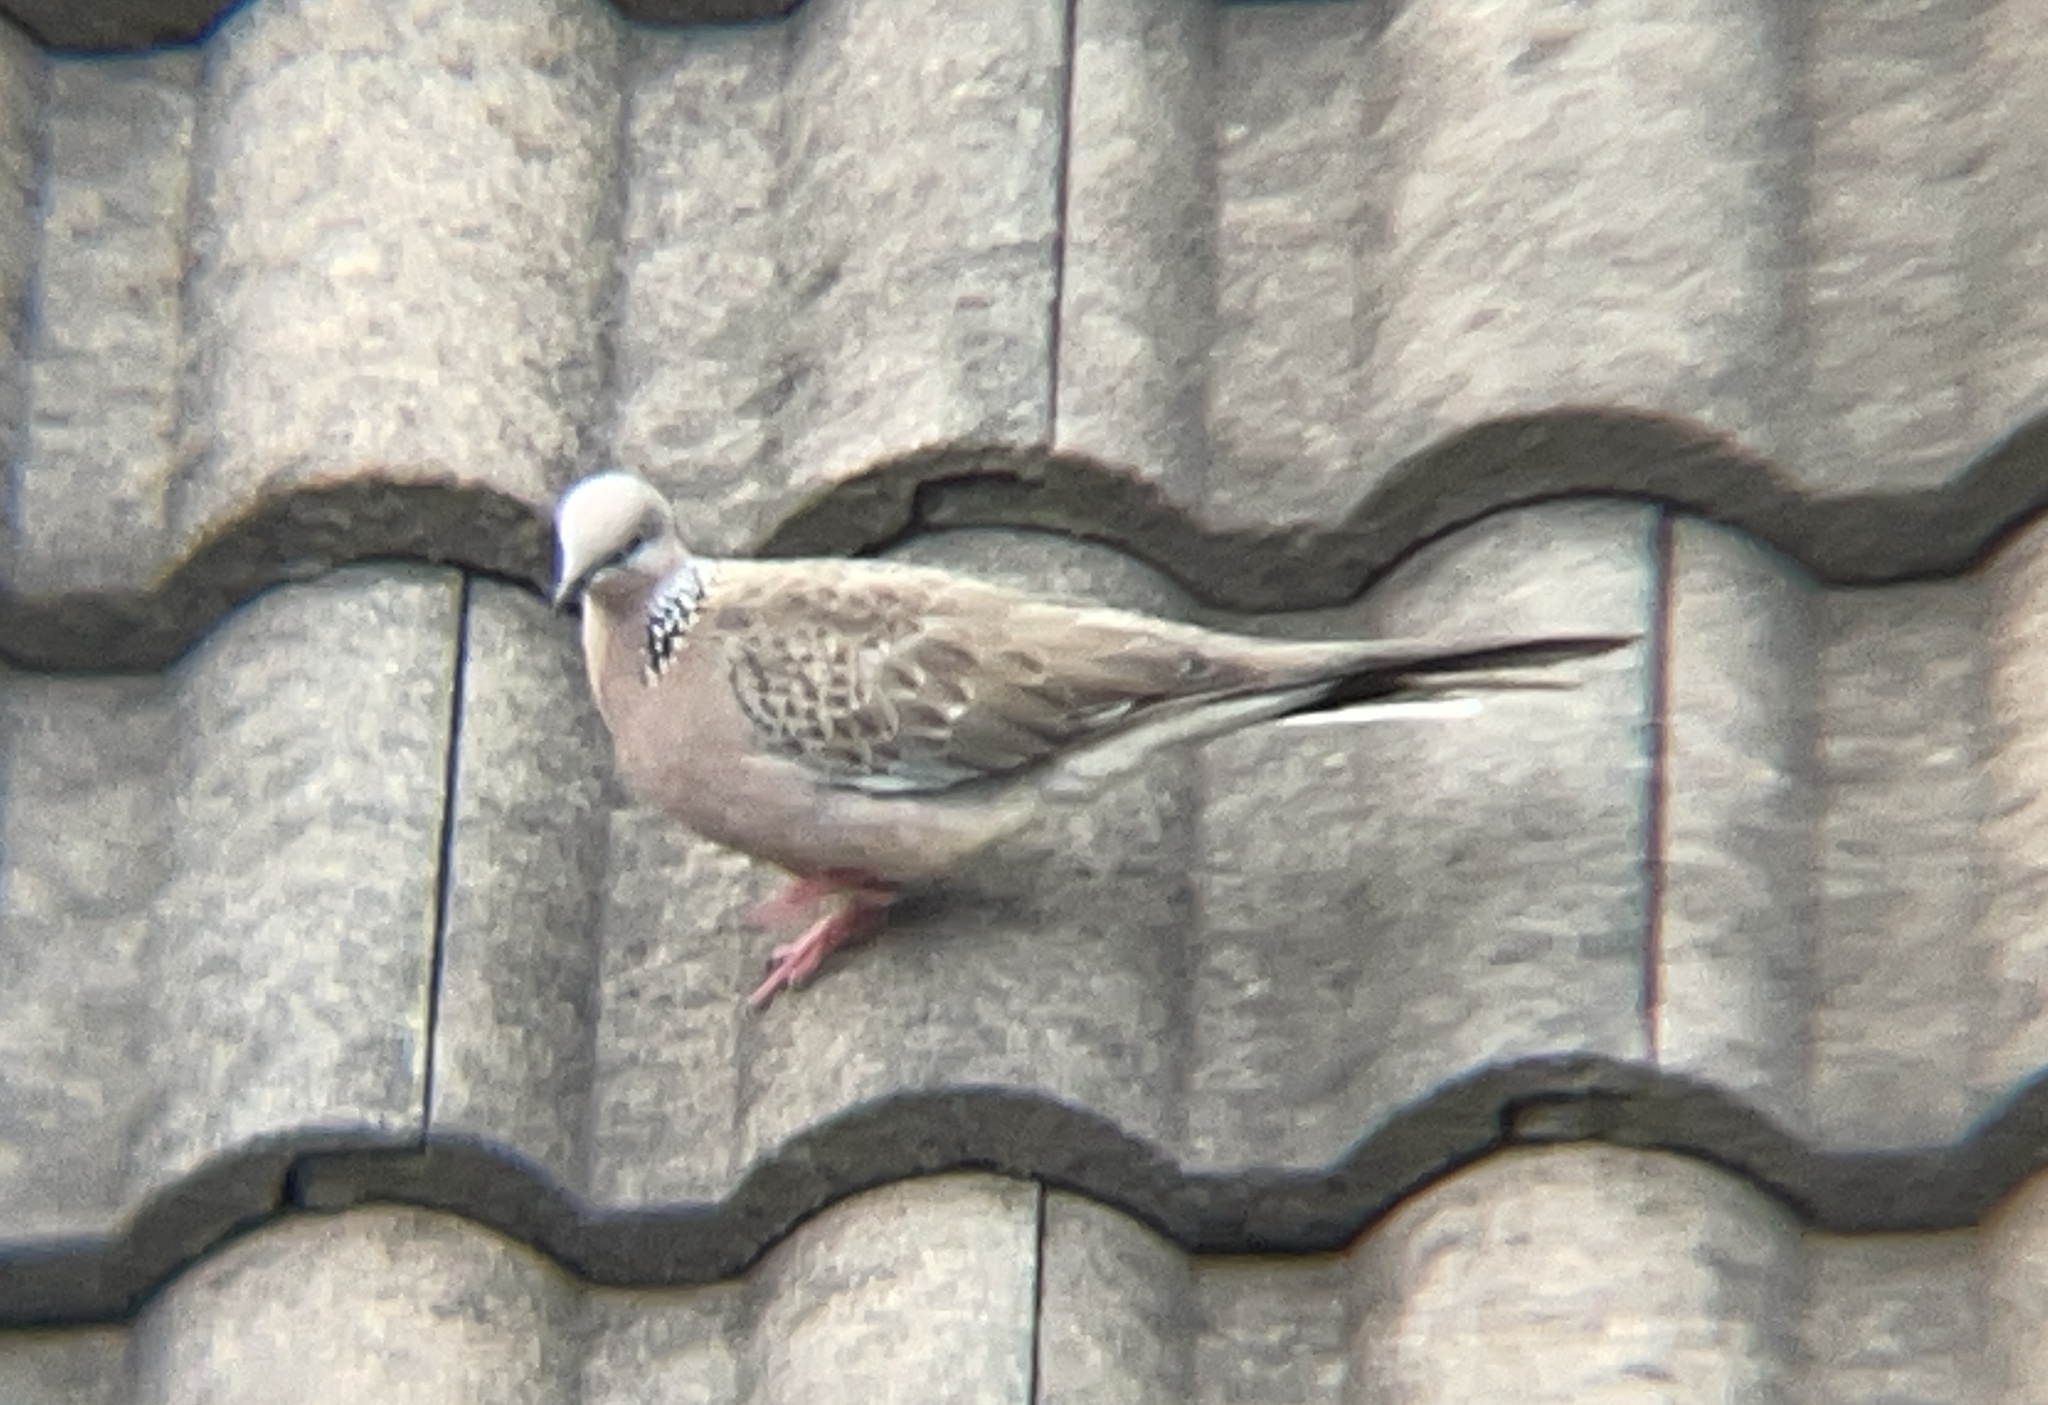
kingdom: Animalia
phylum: Chordata
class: Aves
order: Columbiformes
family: Columbidae
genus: Spilopelia
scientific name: Spilopelia chinensis
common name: Spotted dove
